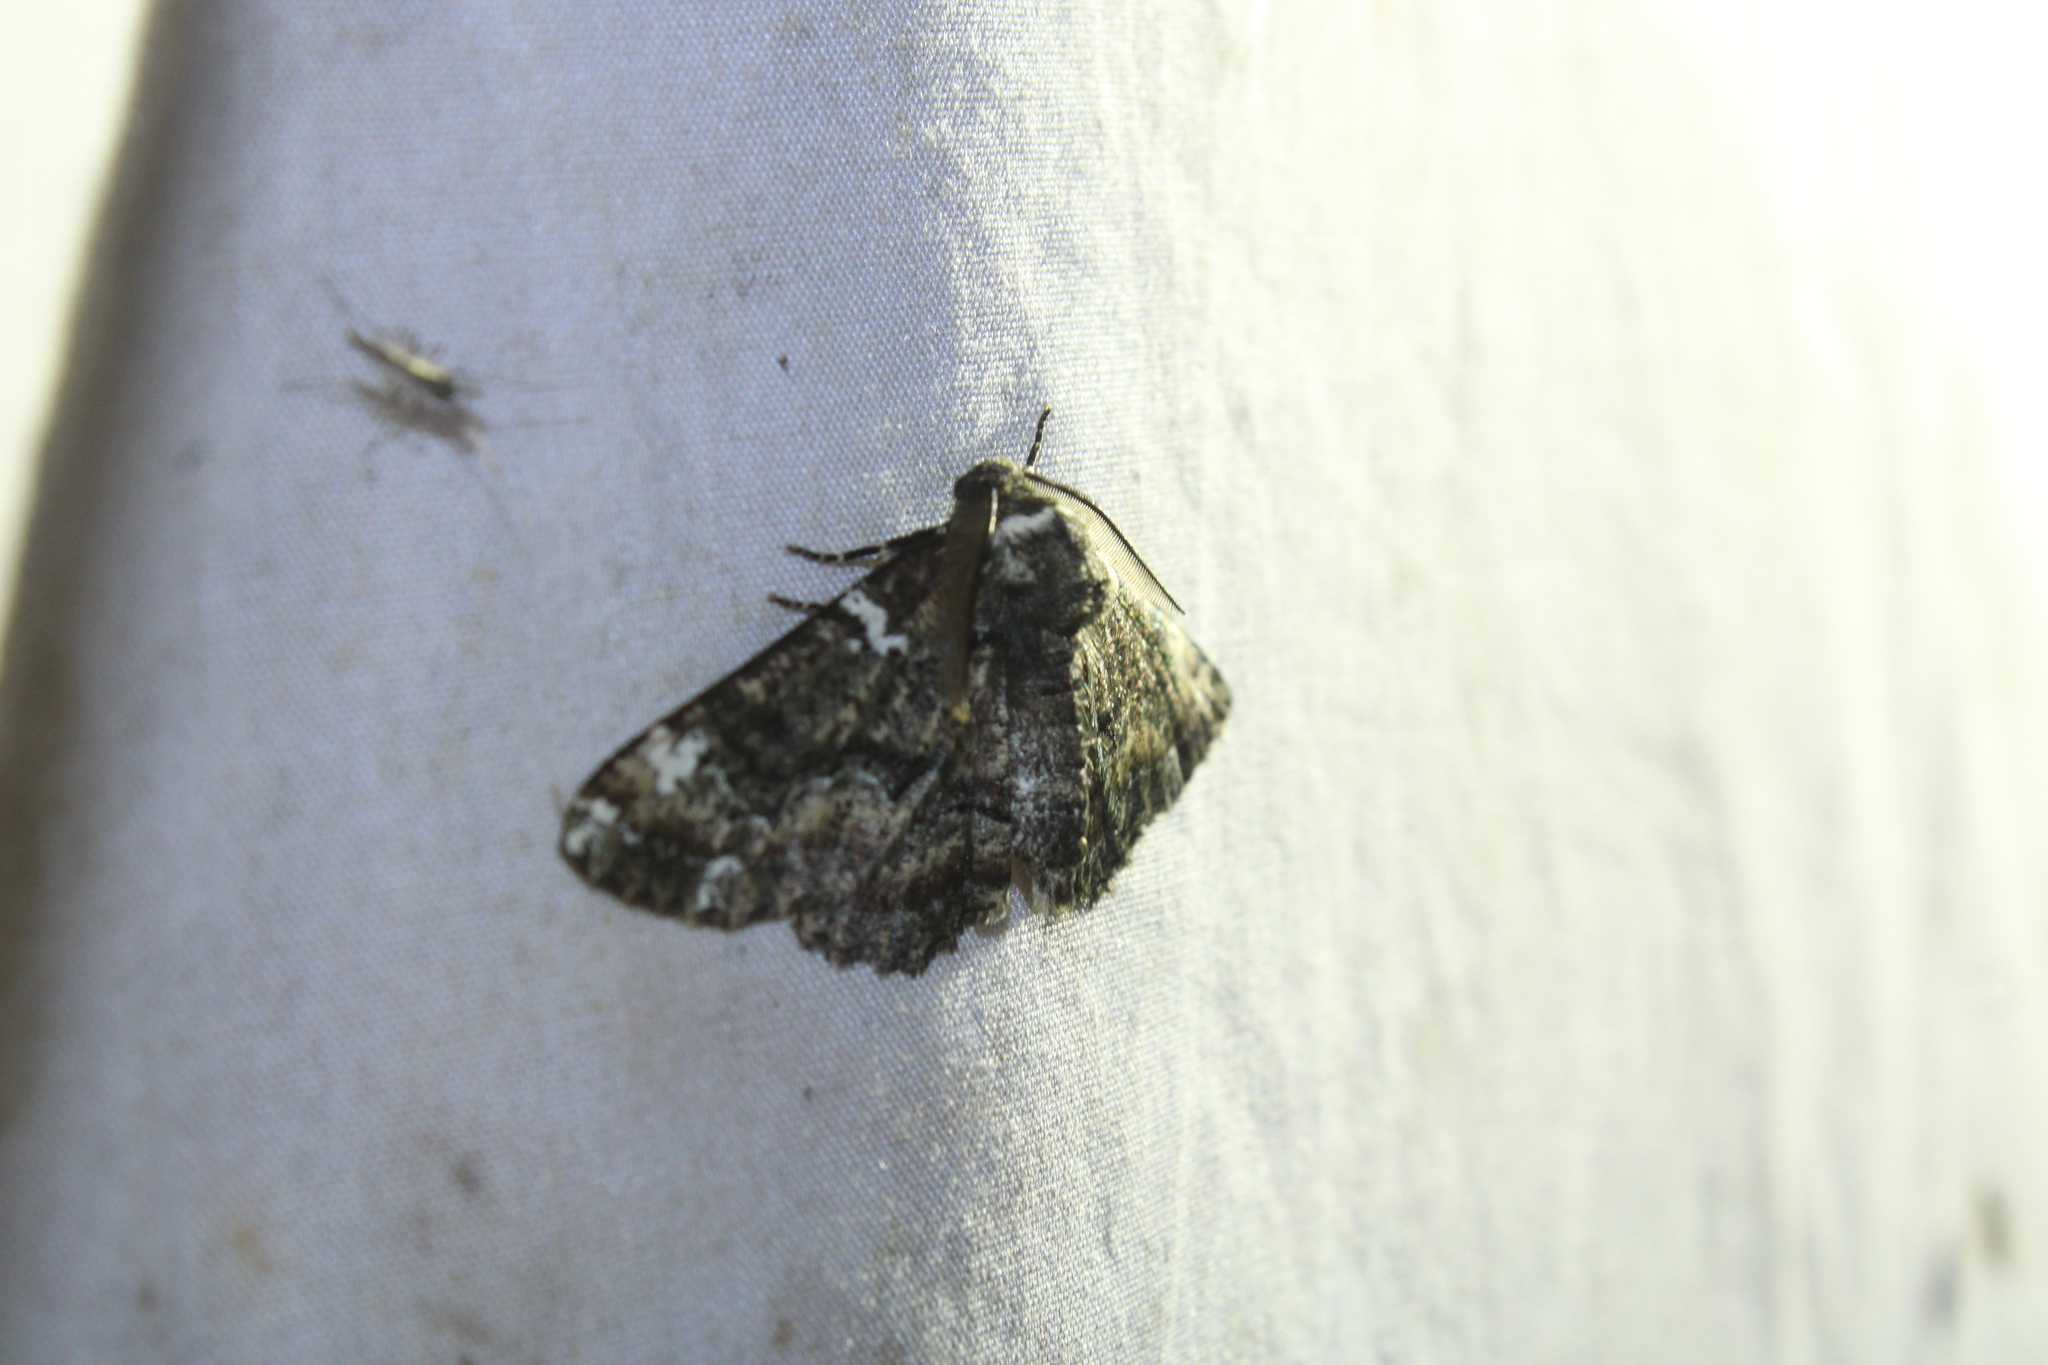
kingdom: Animalia
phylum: Arthropoda
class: Insecta
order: Lepidoptera
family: Geometridae
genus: Phaeoura
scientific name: Phaeoura quernaria
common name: Oak beauty
